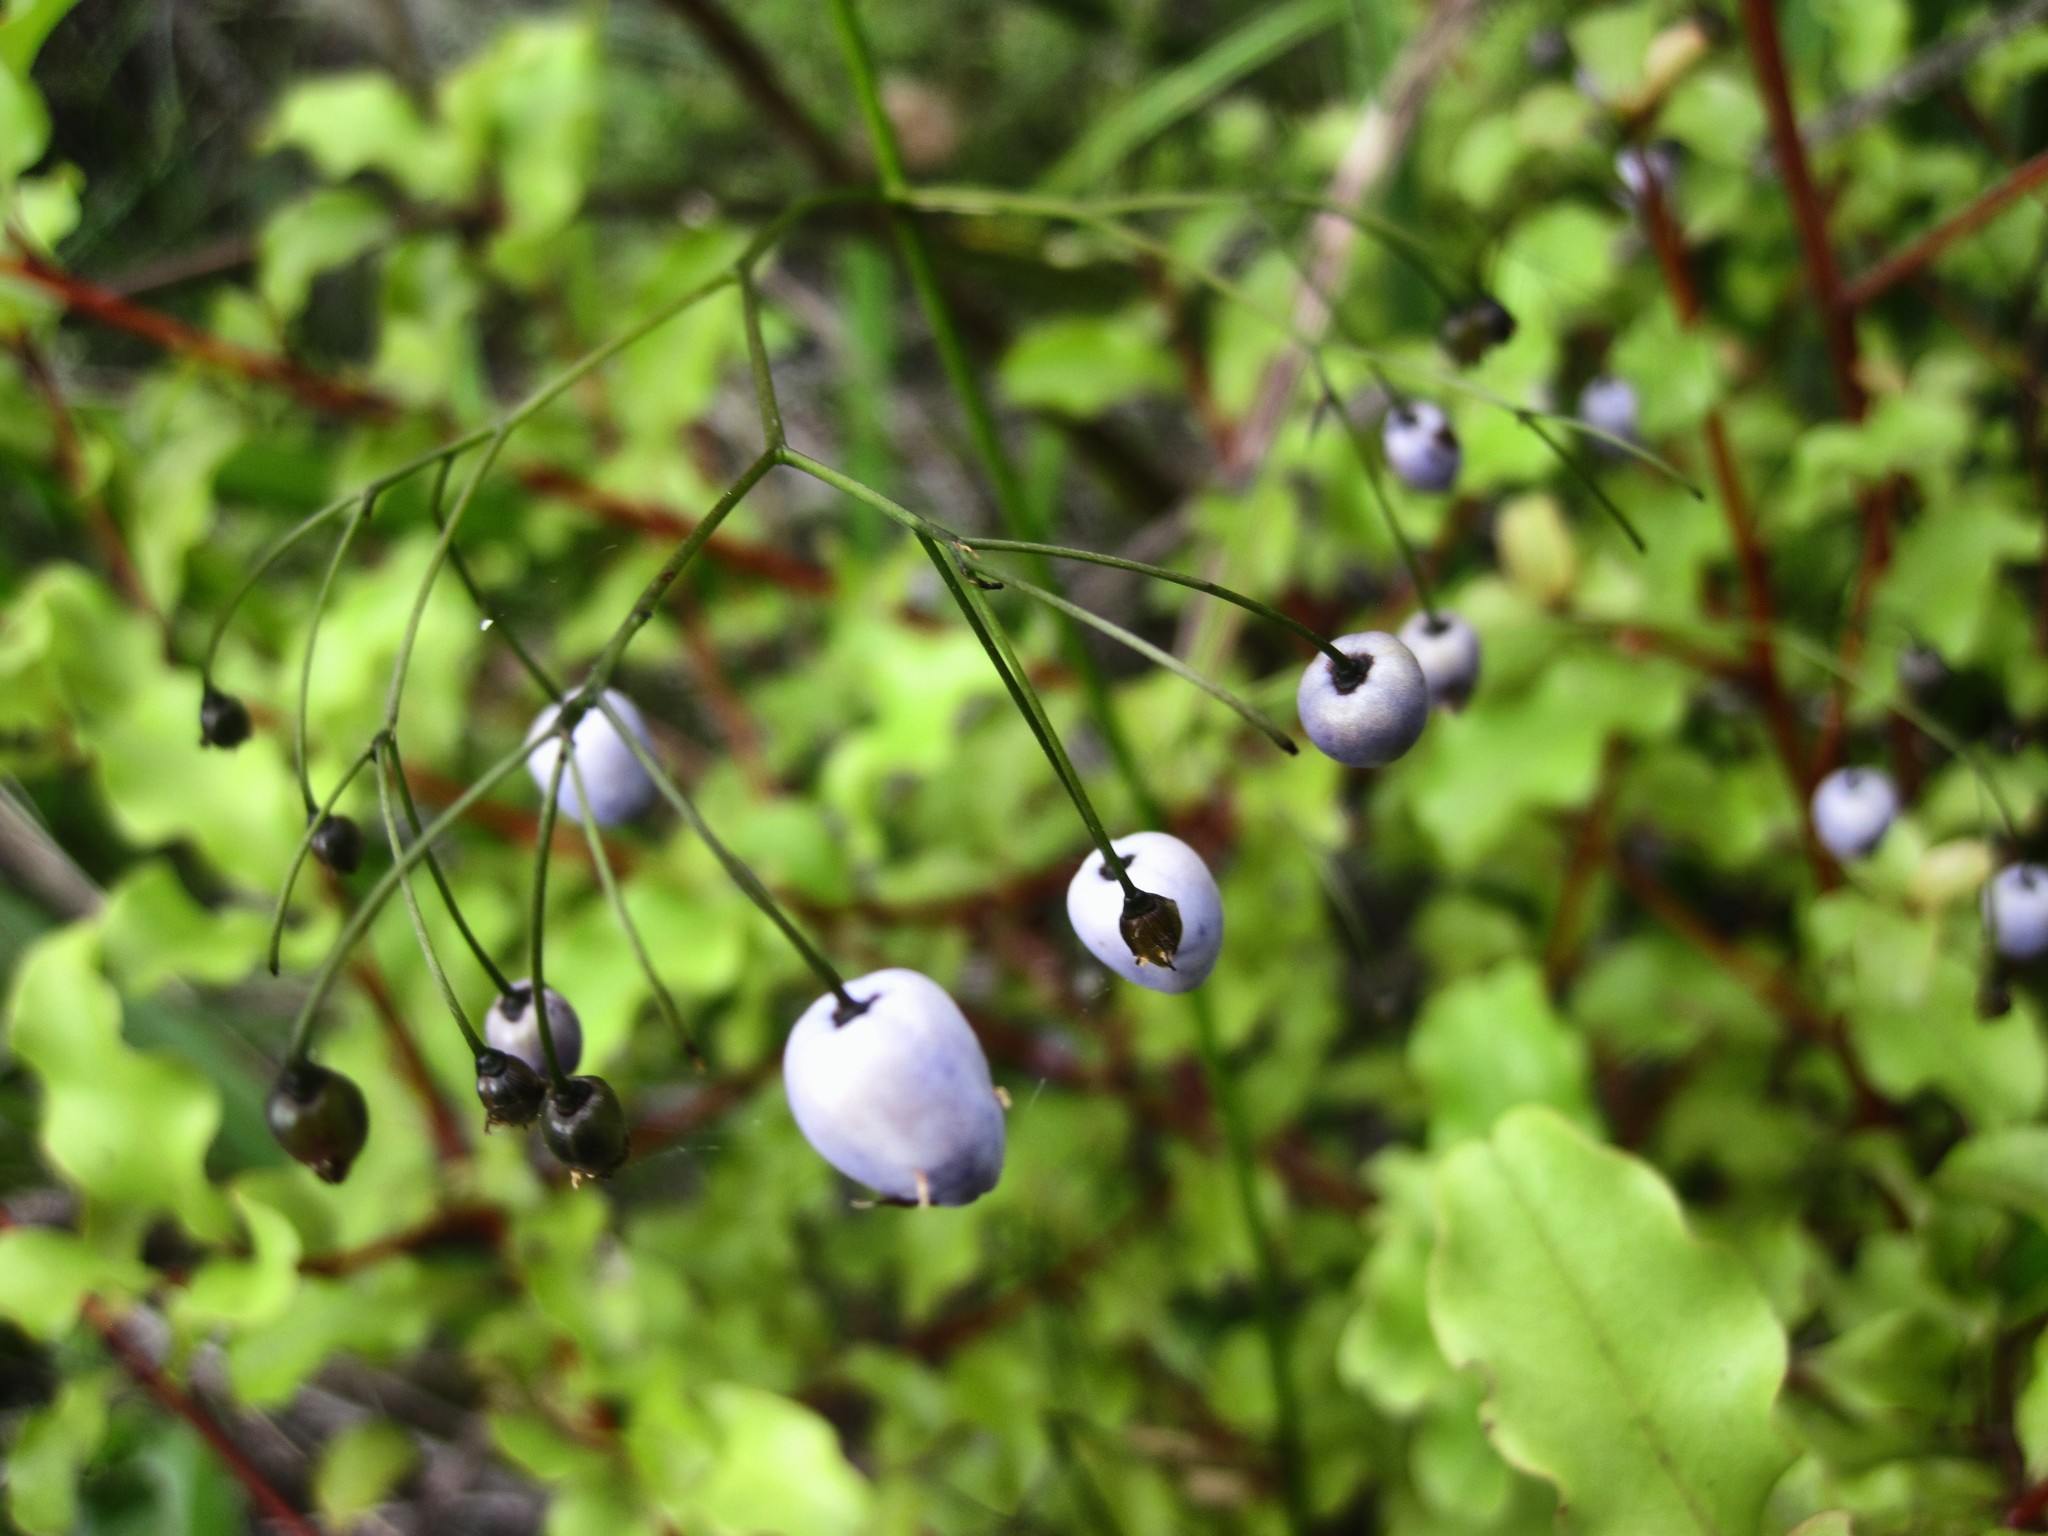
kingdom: Plantae
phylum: Tracheophyta
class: Liliopsida
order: Asparagales
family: Asphodelaceae
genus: Dianella
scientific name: Dianella nigra
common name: New zealand-blueberry
